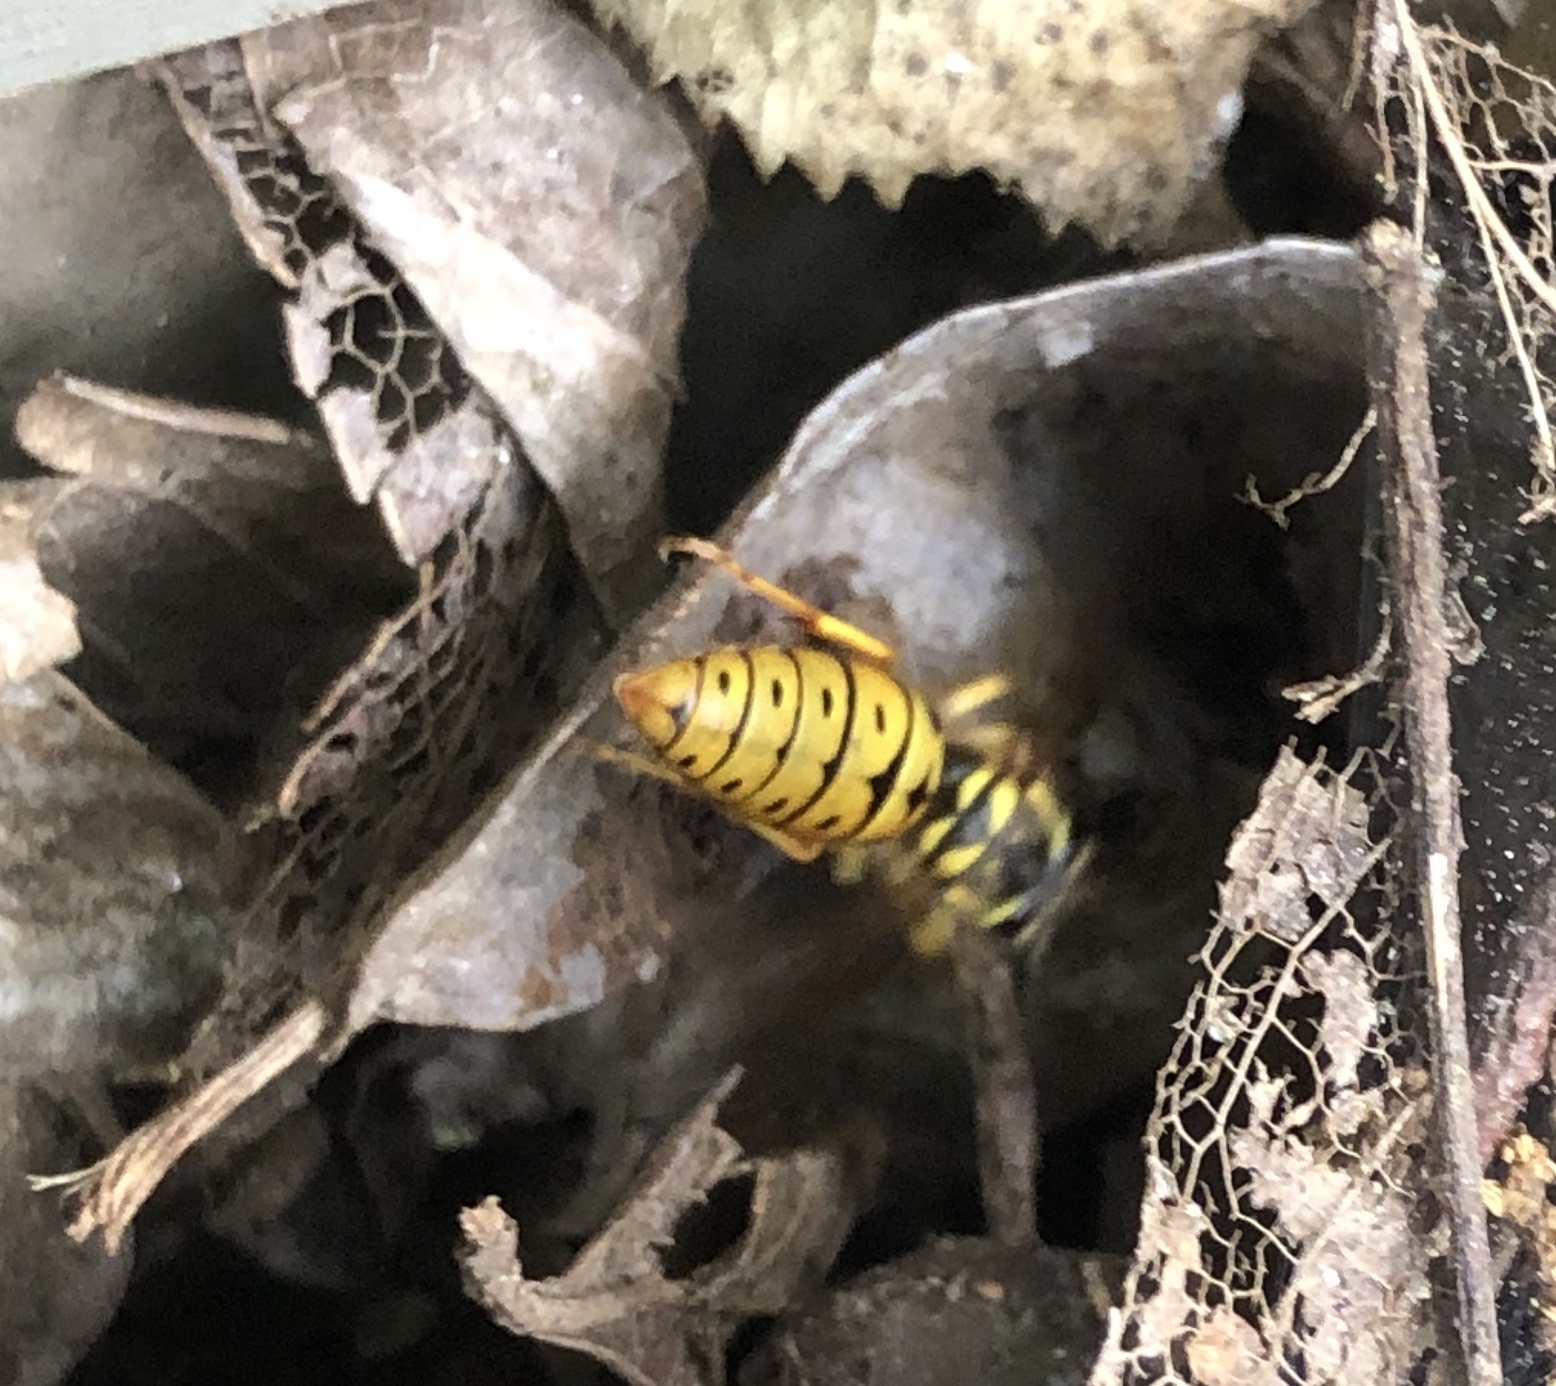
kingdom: Animalia
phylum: Arthropoda
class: Insecta
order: Hymenoptera
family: Vespidae
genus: Vespula
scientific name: Vespula maculifrons
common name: Eastern yellowjacket
